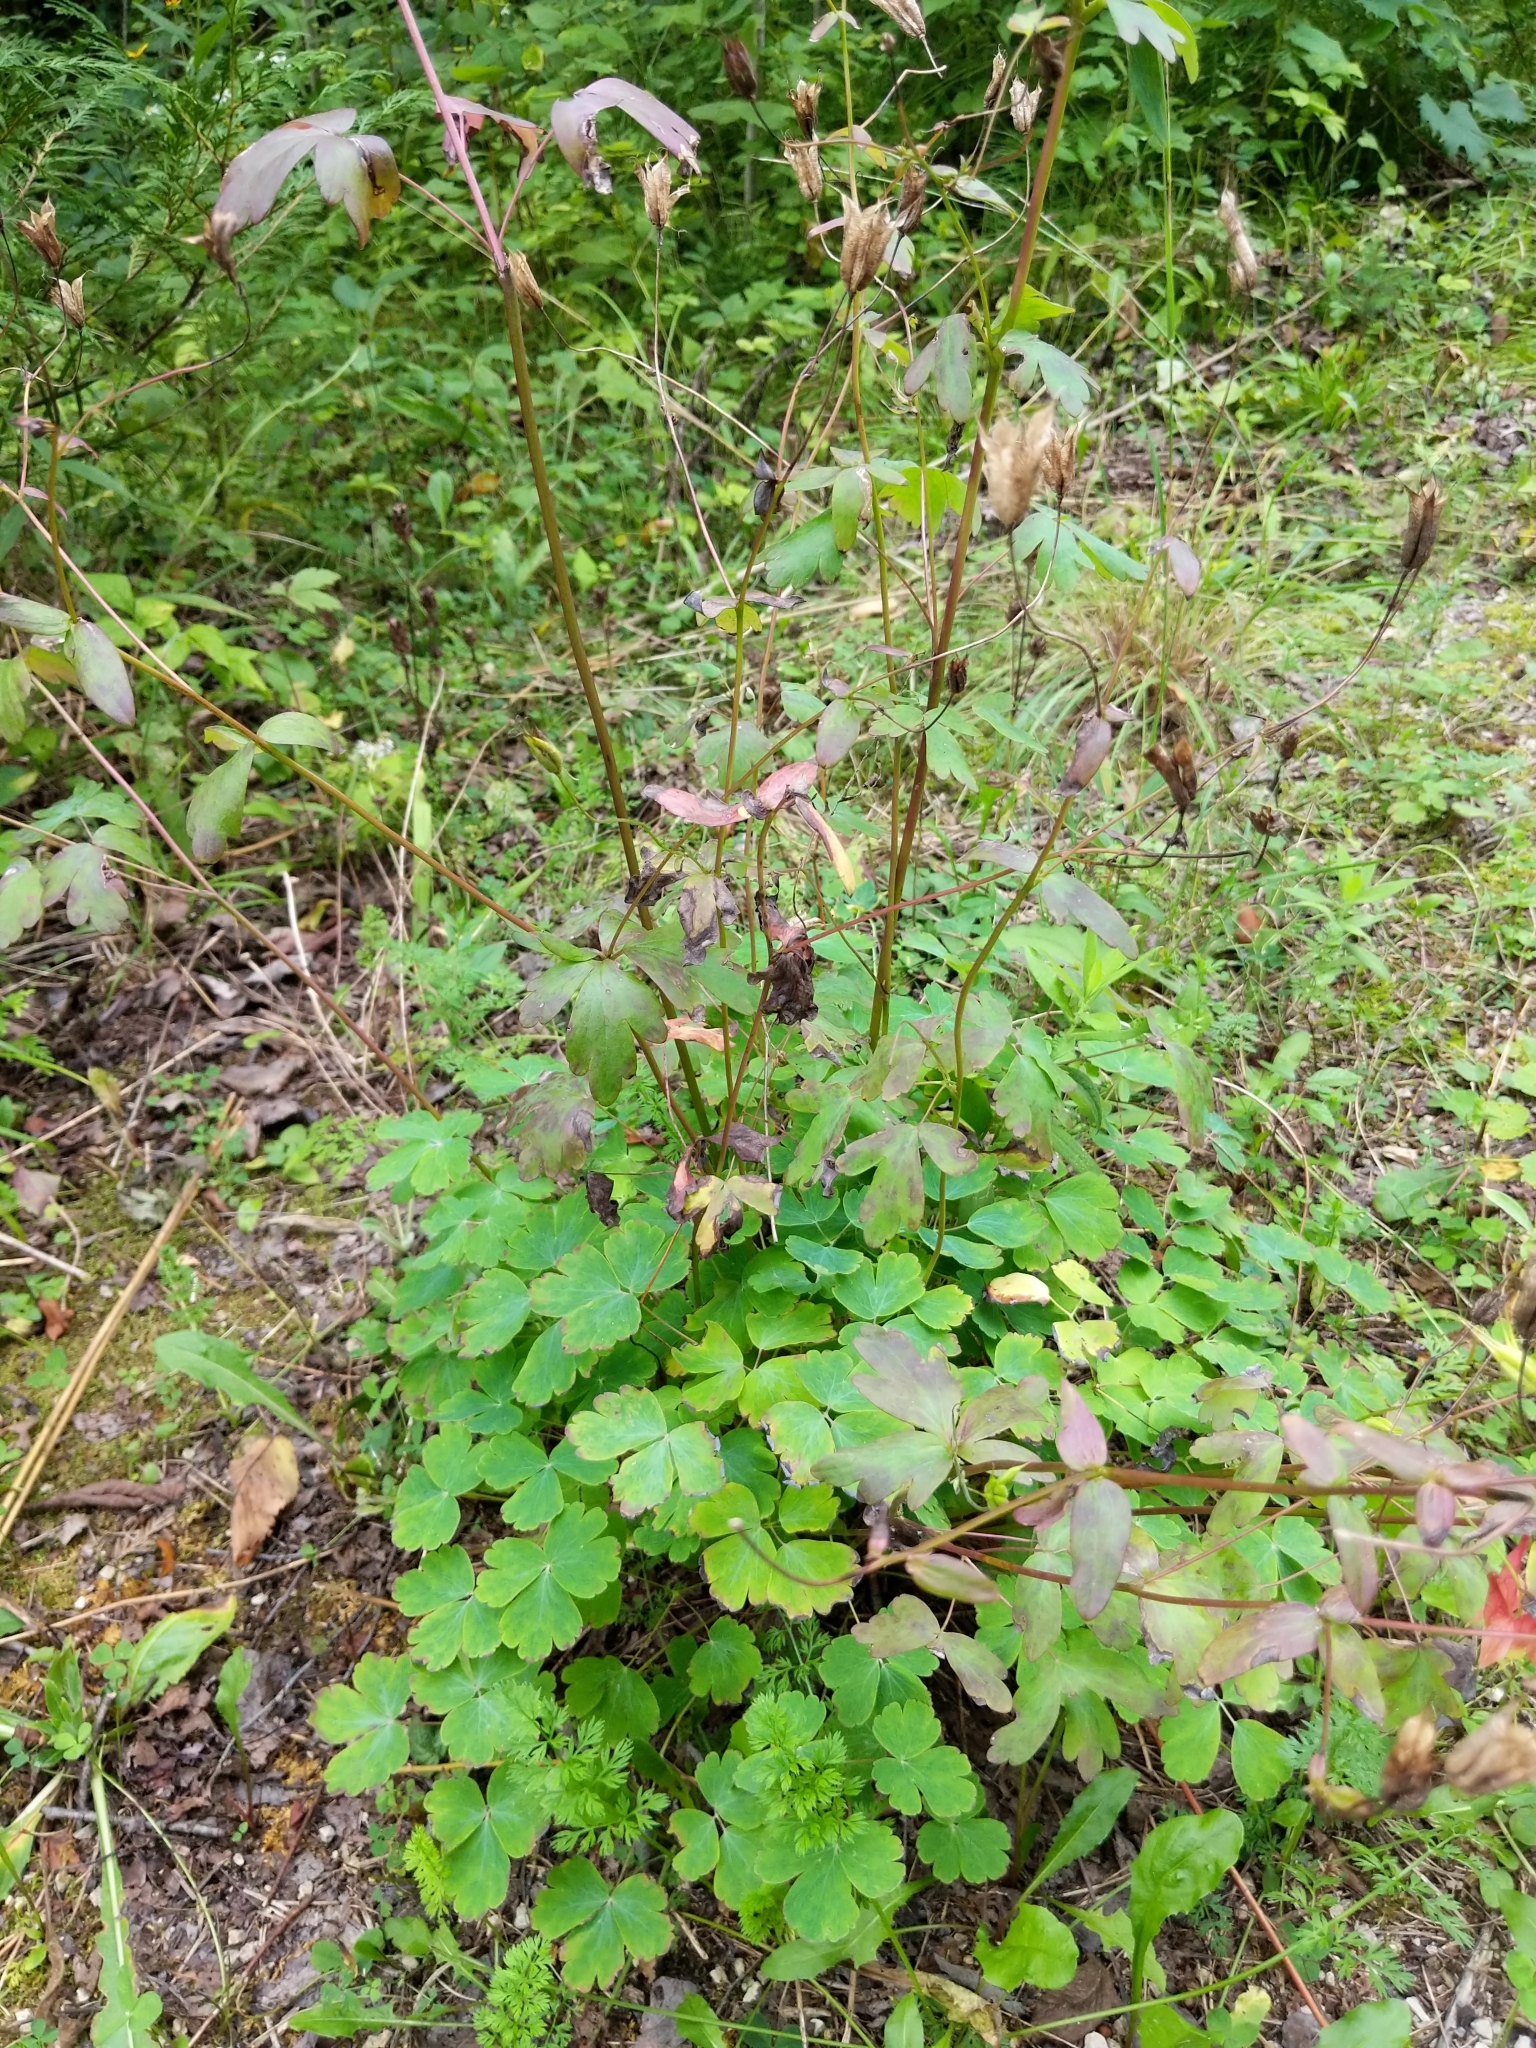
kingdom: Plantae
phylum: Tracheophyta
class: Magnoliopsida
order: Ranunculales
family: Ranunculaceae
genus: Aquilegia
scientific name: Aquilegia canadensis
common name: American columbine
